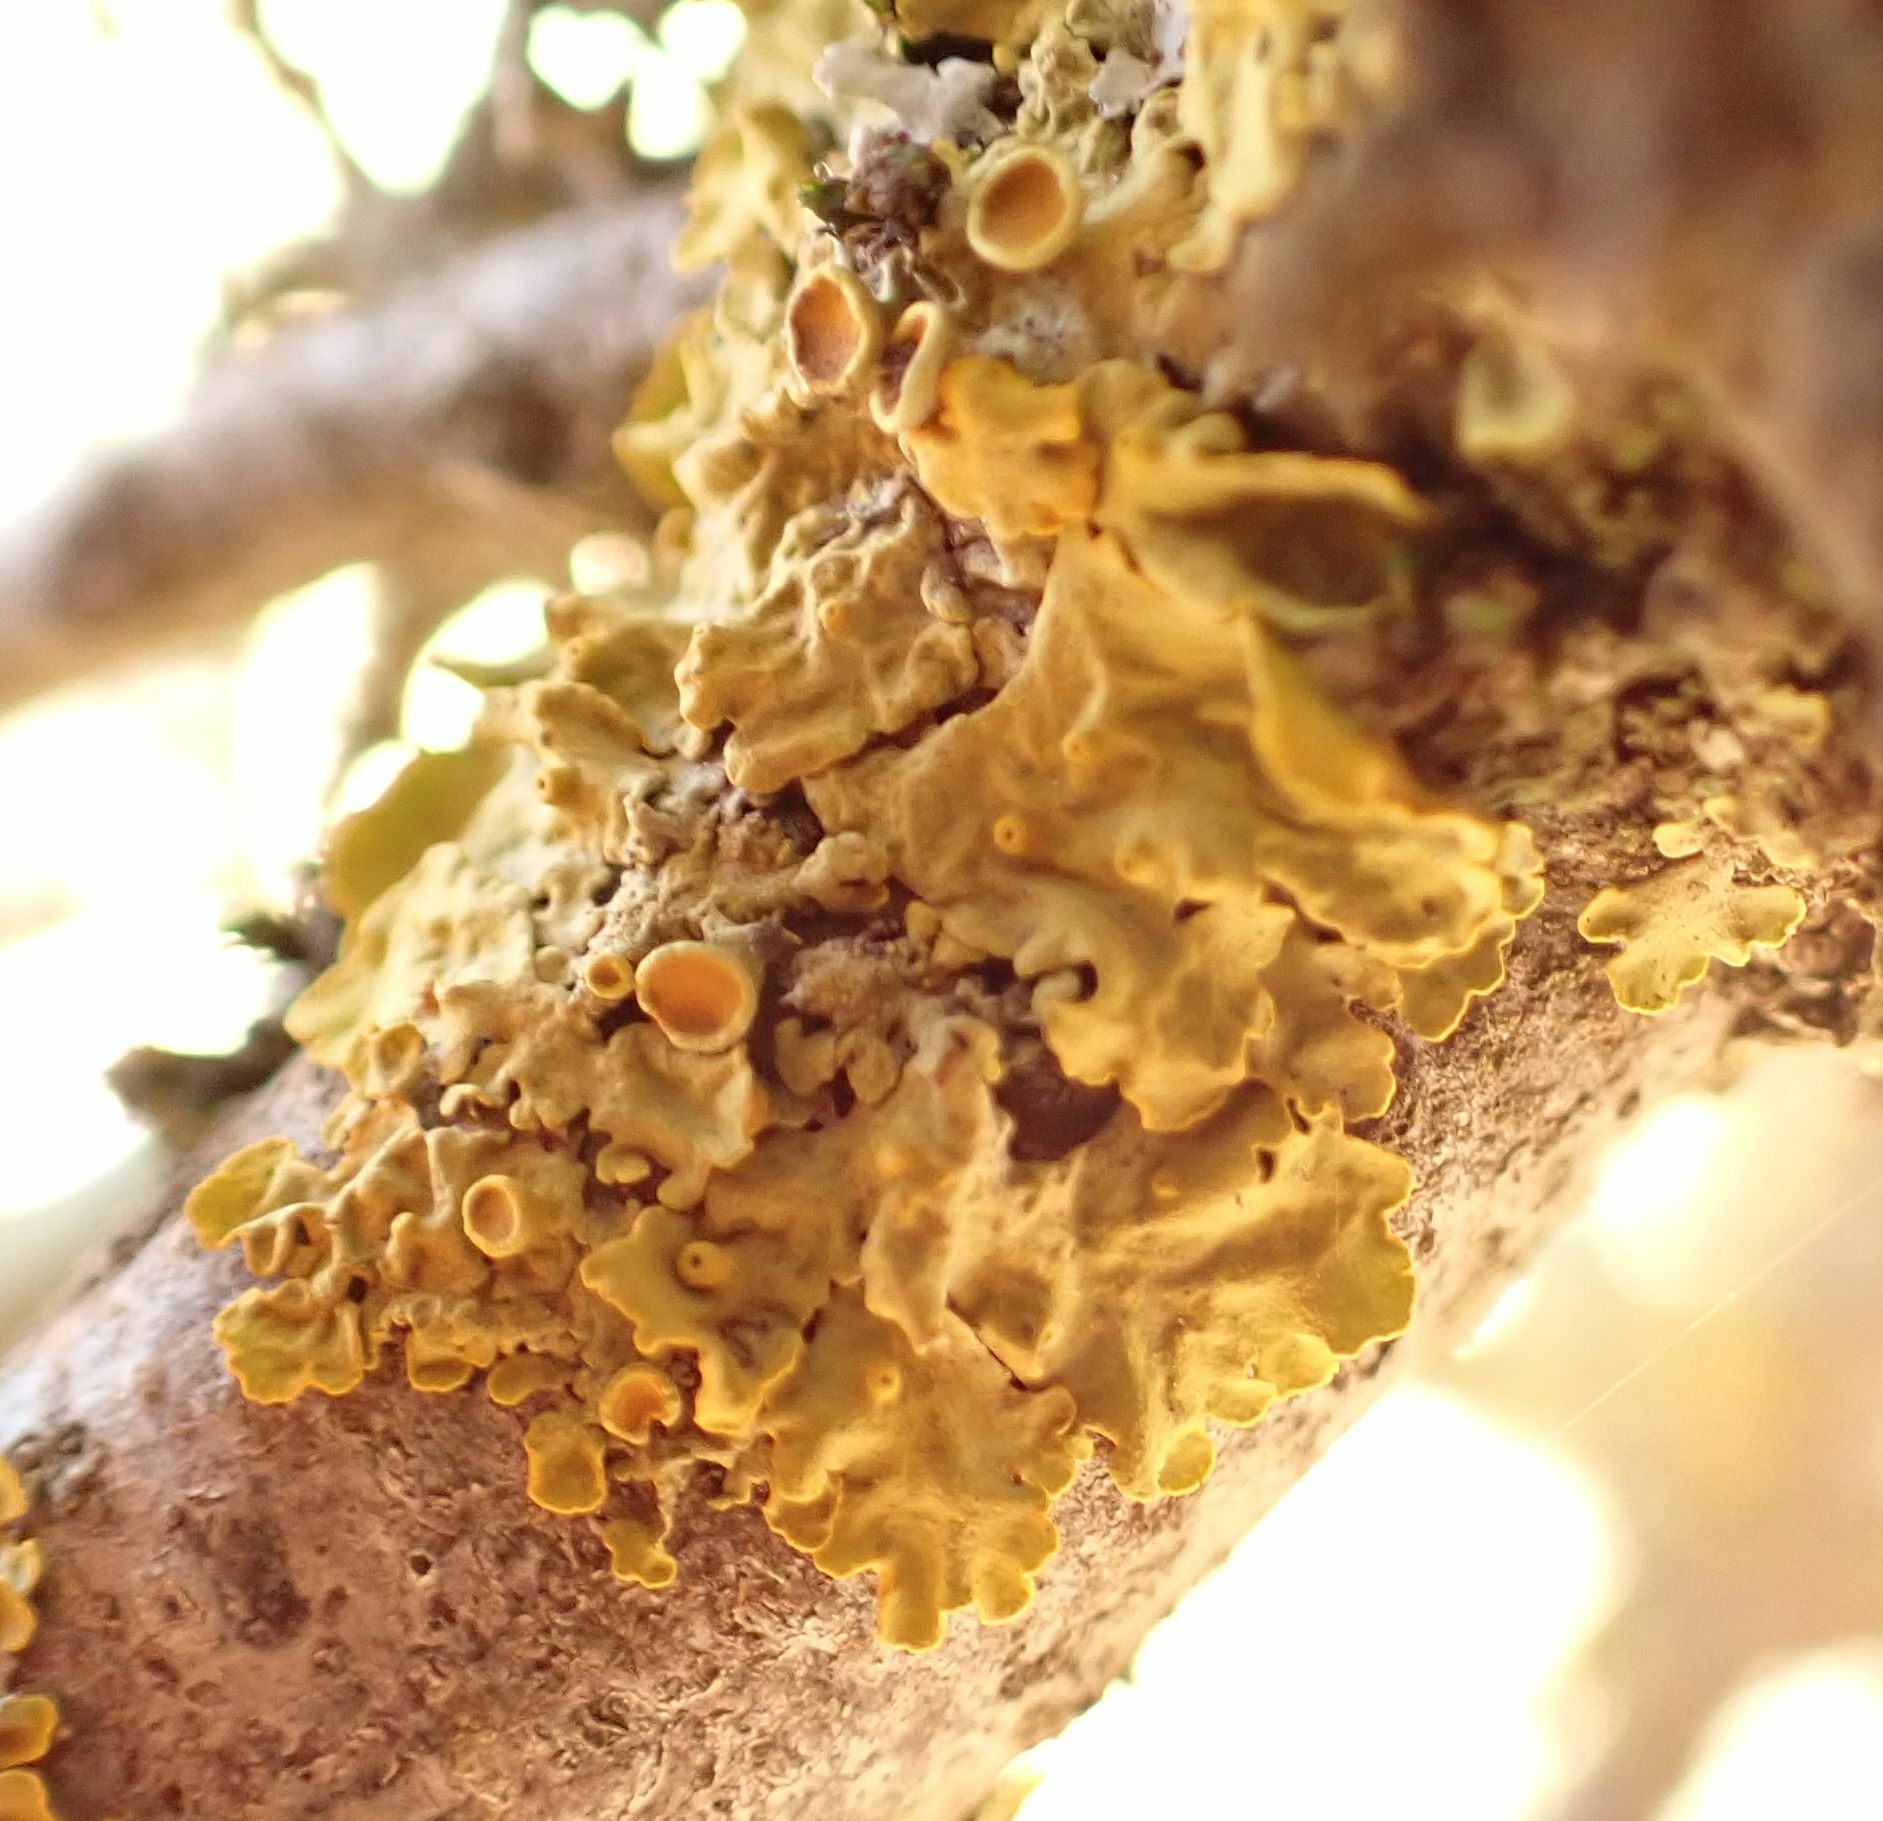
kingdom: Fungi
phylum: Ascomycota
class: Lecanoromycetes
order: Teloschistales
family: Teloschistaceae
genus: Xanthoria
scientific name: Xanthoria parietina
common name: Common orange lichen
